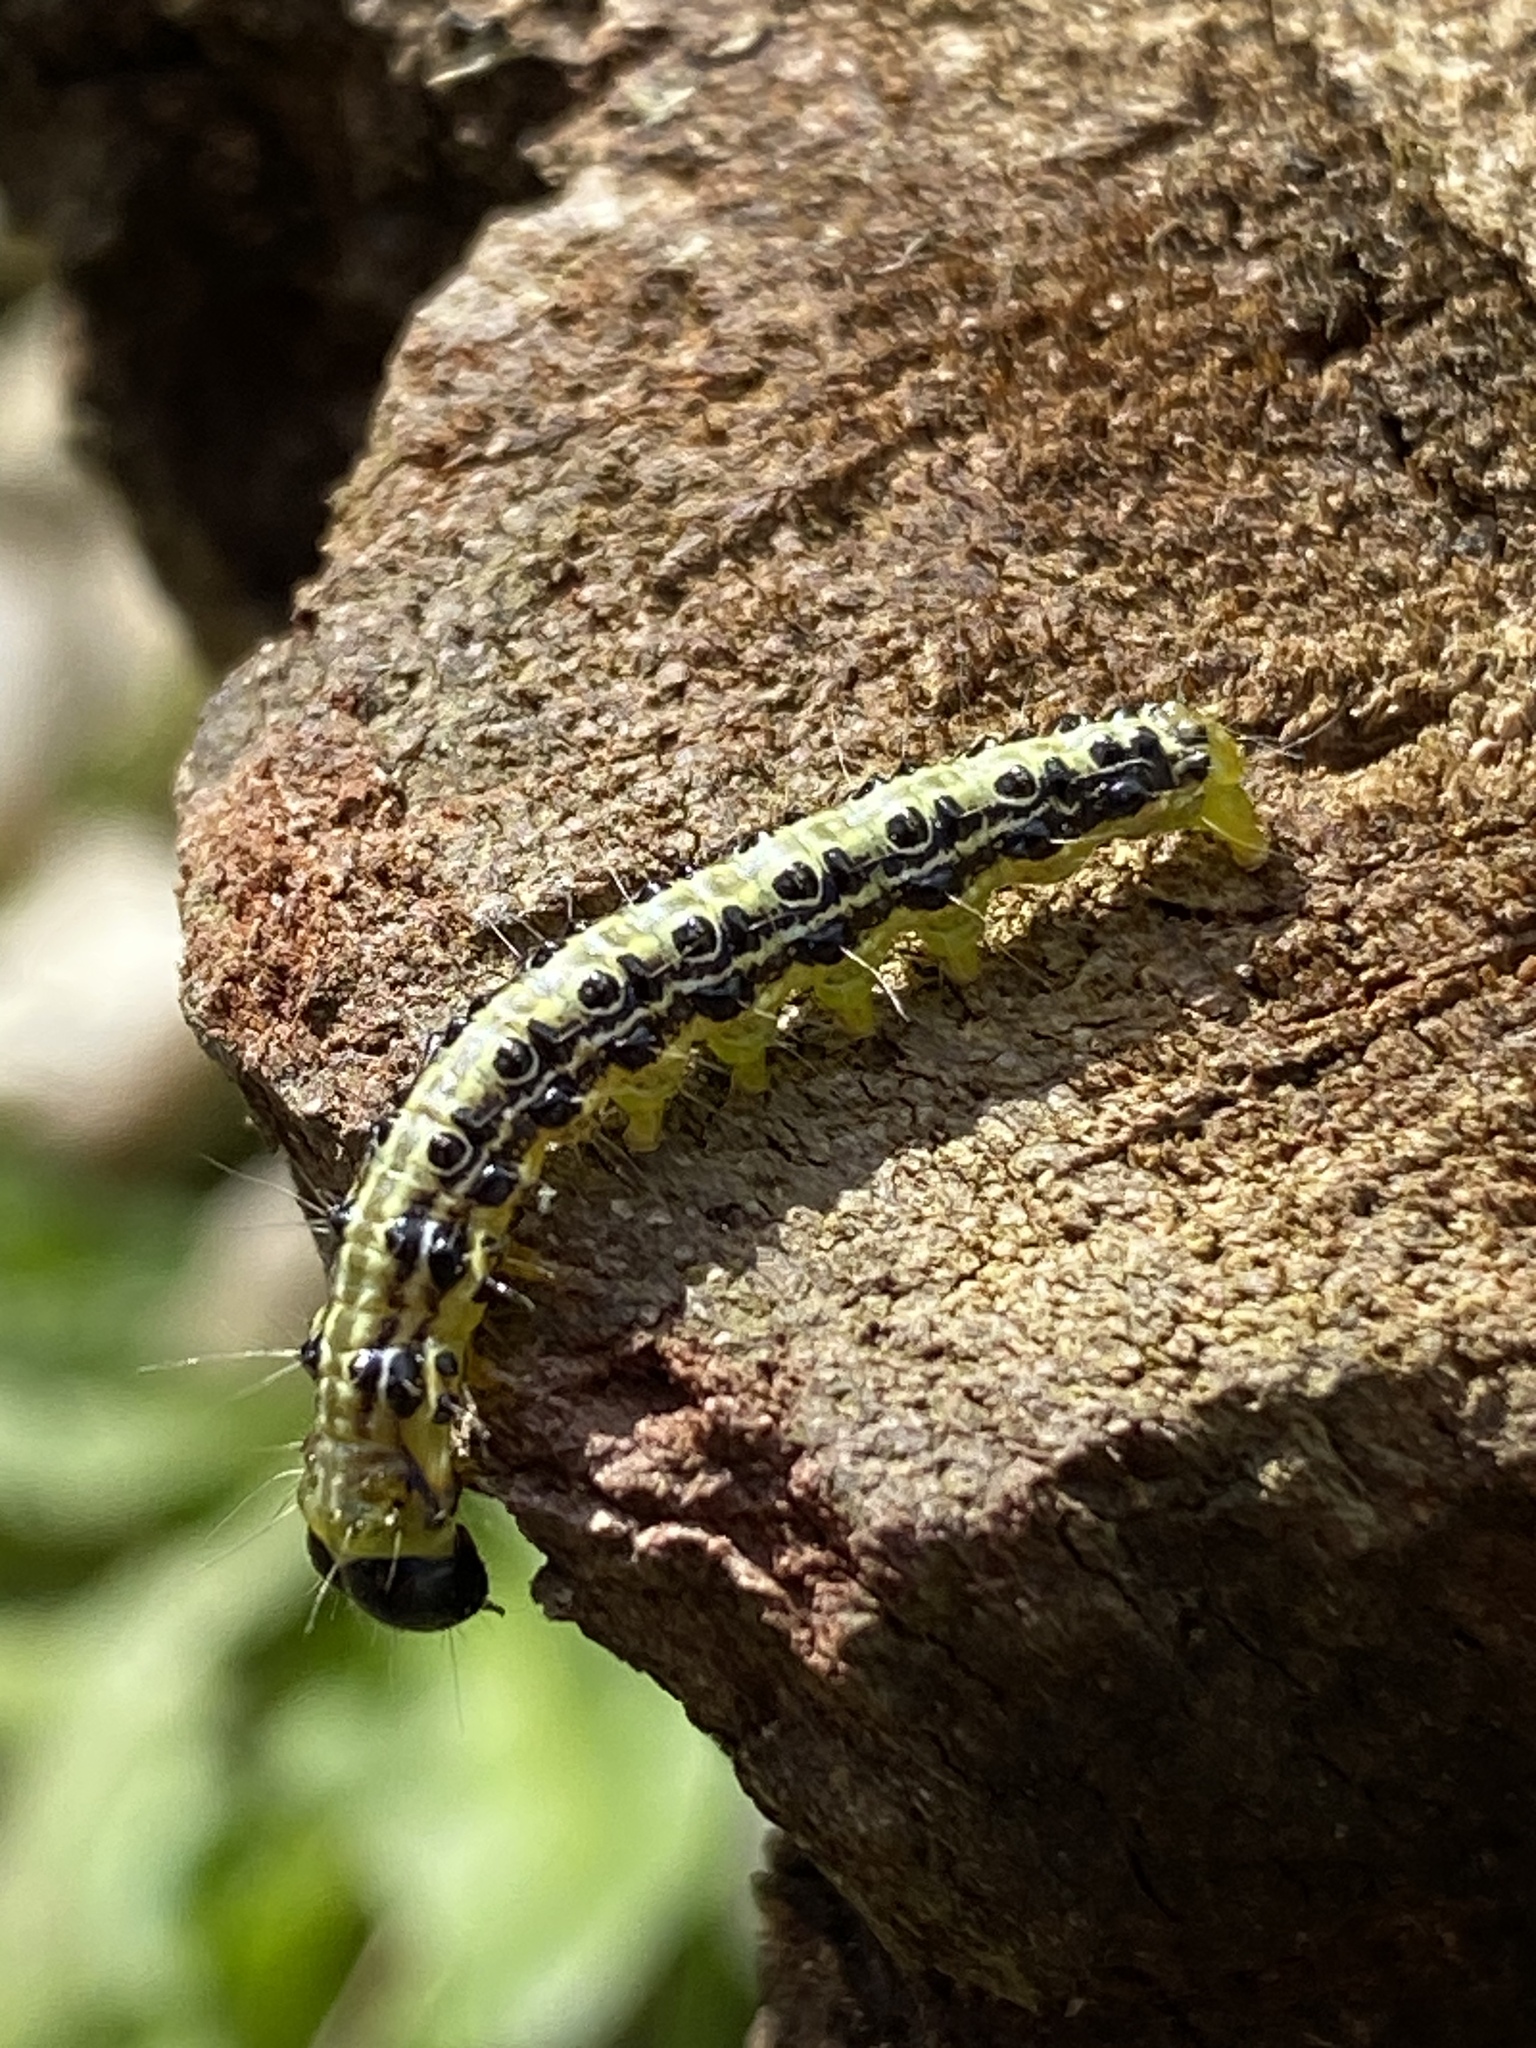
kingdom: Animalia
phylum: Arthropoda
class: Insecta
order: Lepidoptera
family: Crambidae
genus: Cydalima
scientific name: Cydalima perspectalis
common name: Box tree moth
